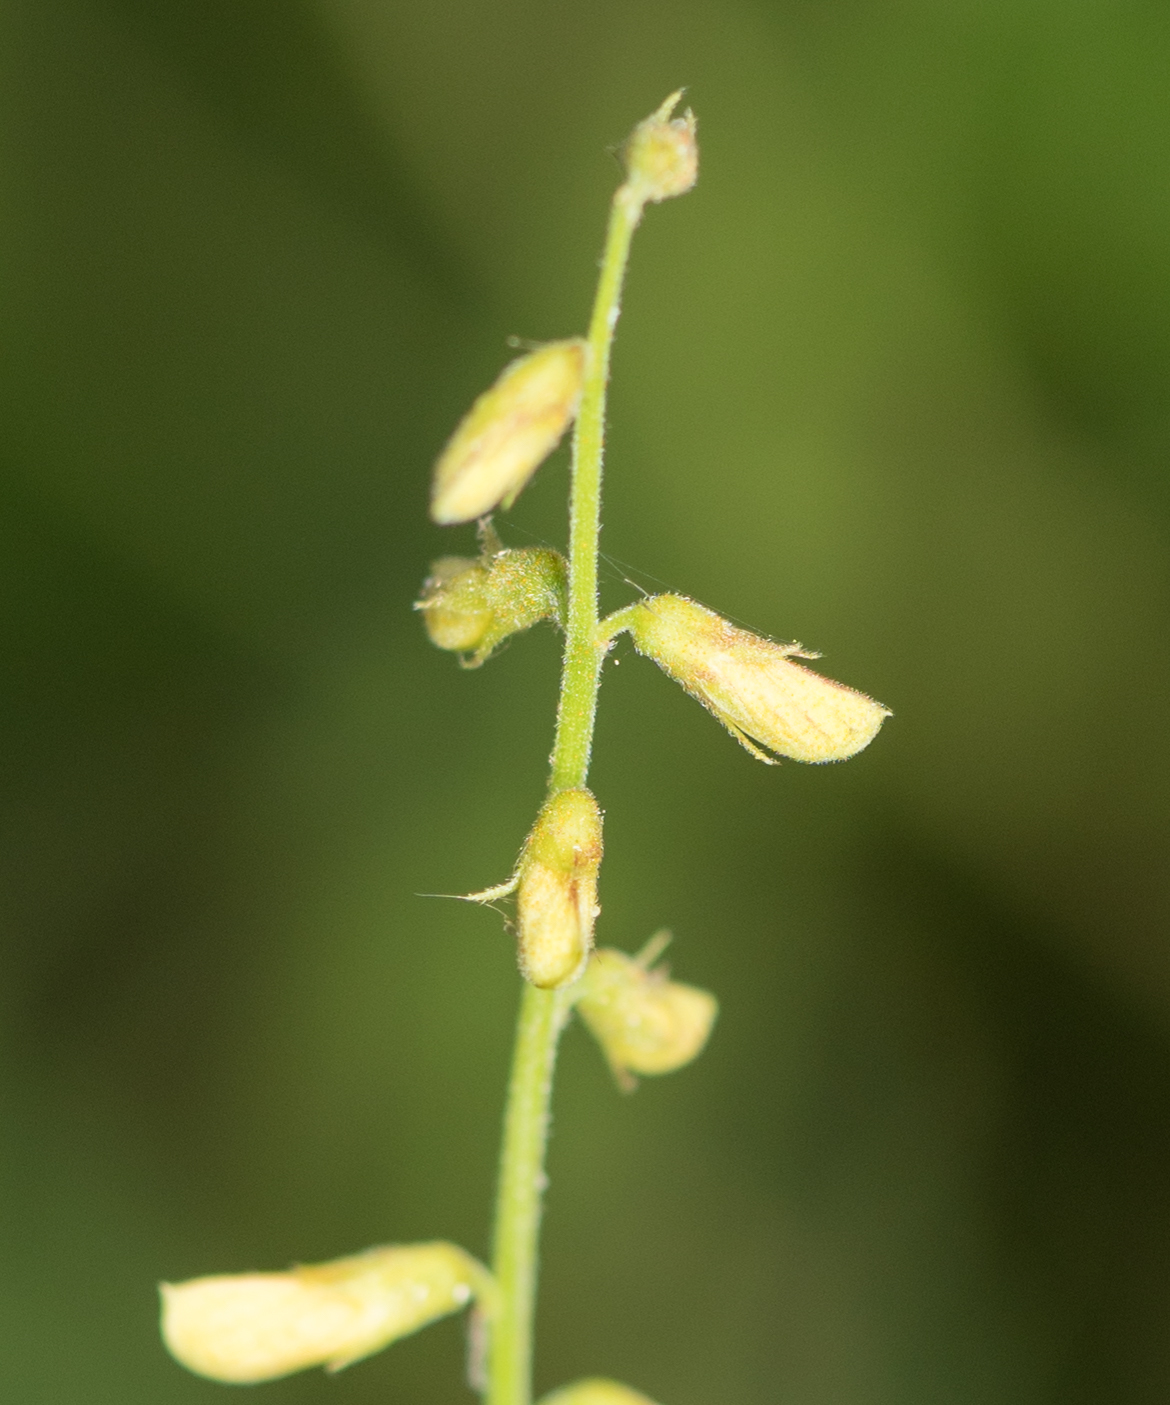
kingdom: Plantae
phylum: Tracheophyta
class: Magnoliopsida
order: Fabales
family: Fabaceae
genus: Rhynchosia
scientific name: Rhynchosia minima
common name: Least snoutbean
